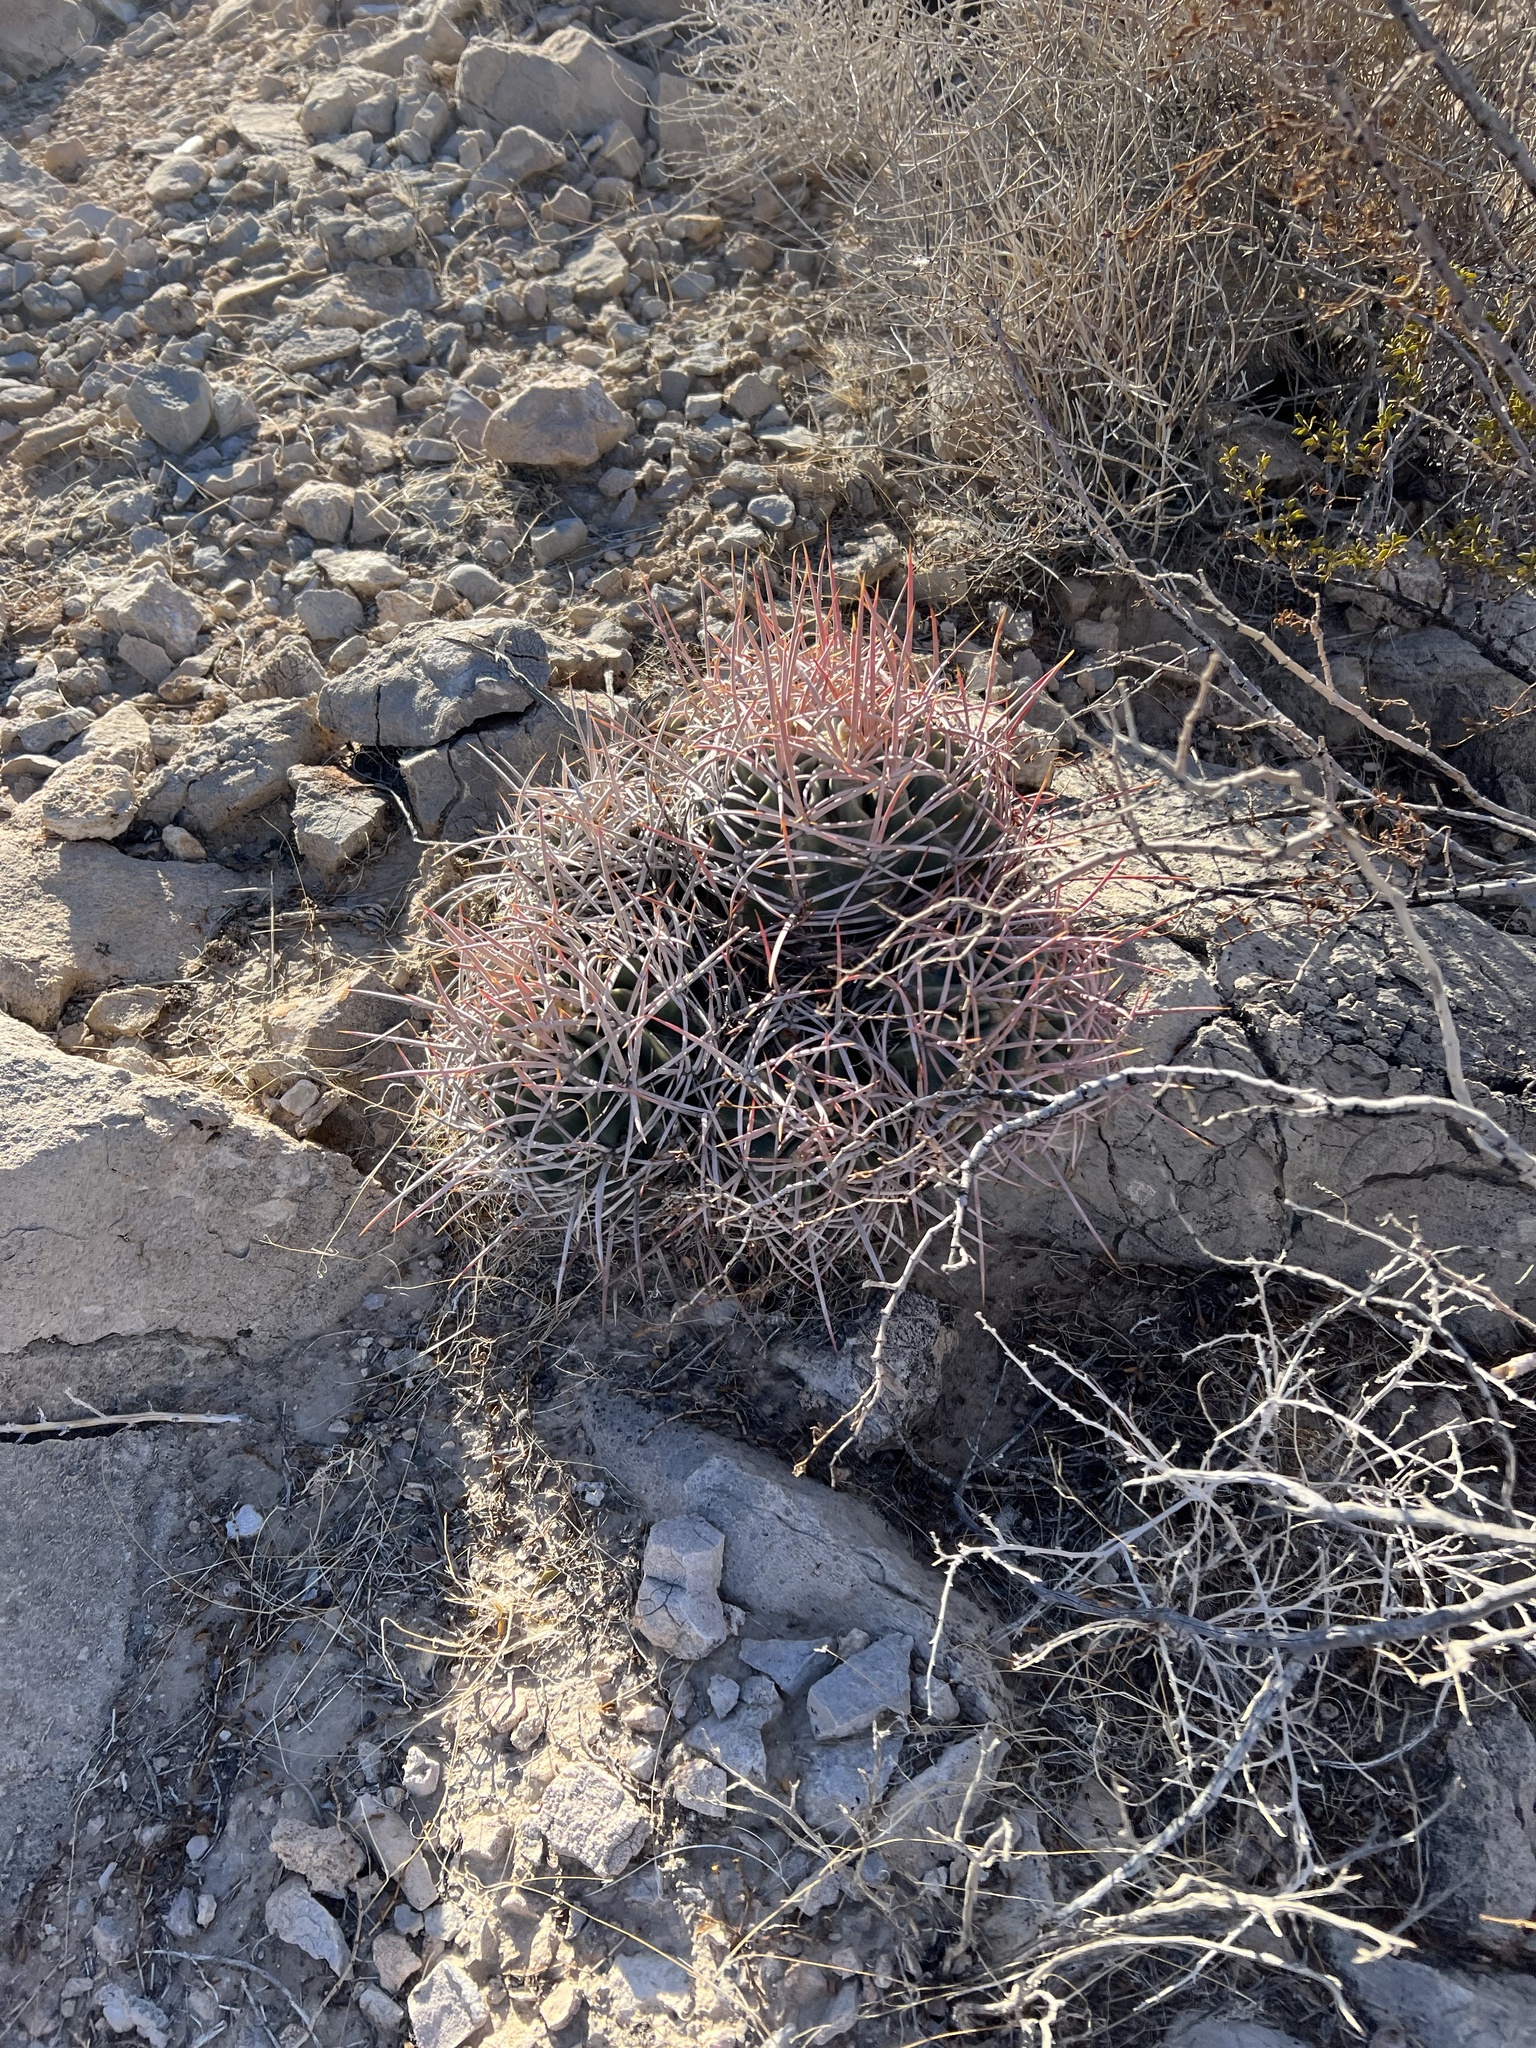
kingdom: Plantae
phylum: Tracheophyta
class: Magnoliopsida
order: Caryophyllales
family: Cactaceae
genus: Echinocactus
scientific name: Echinocactus polycephalus
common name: Cottontop cactus
